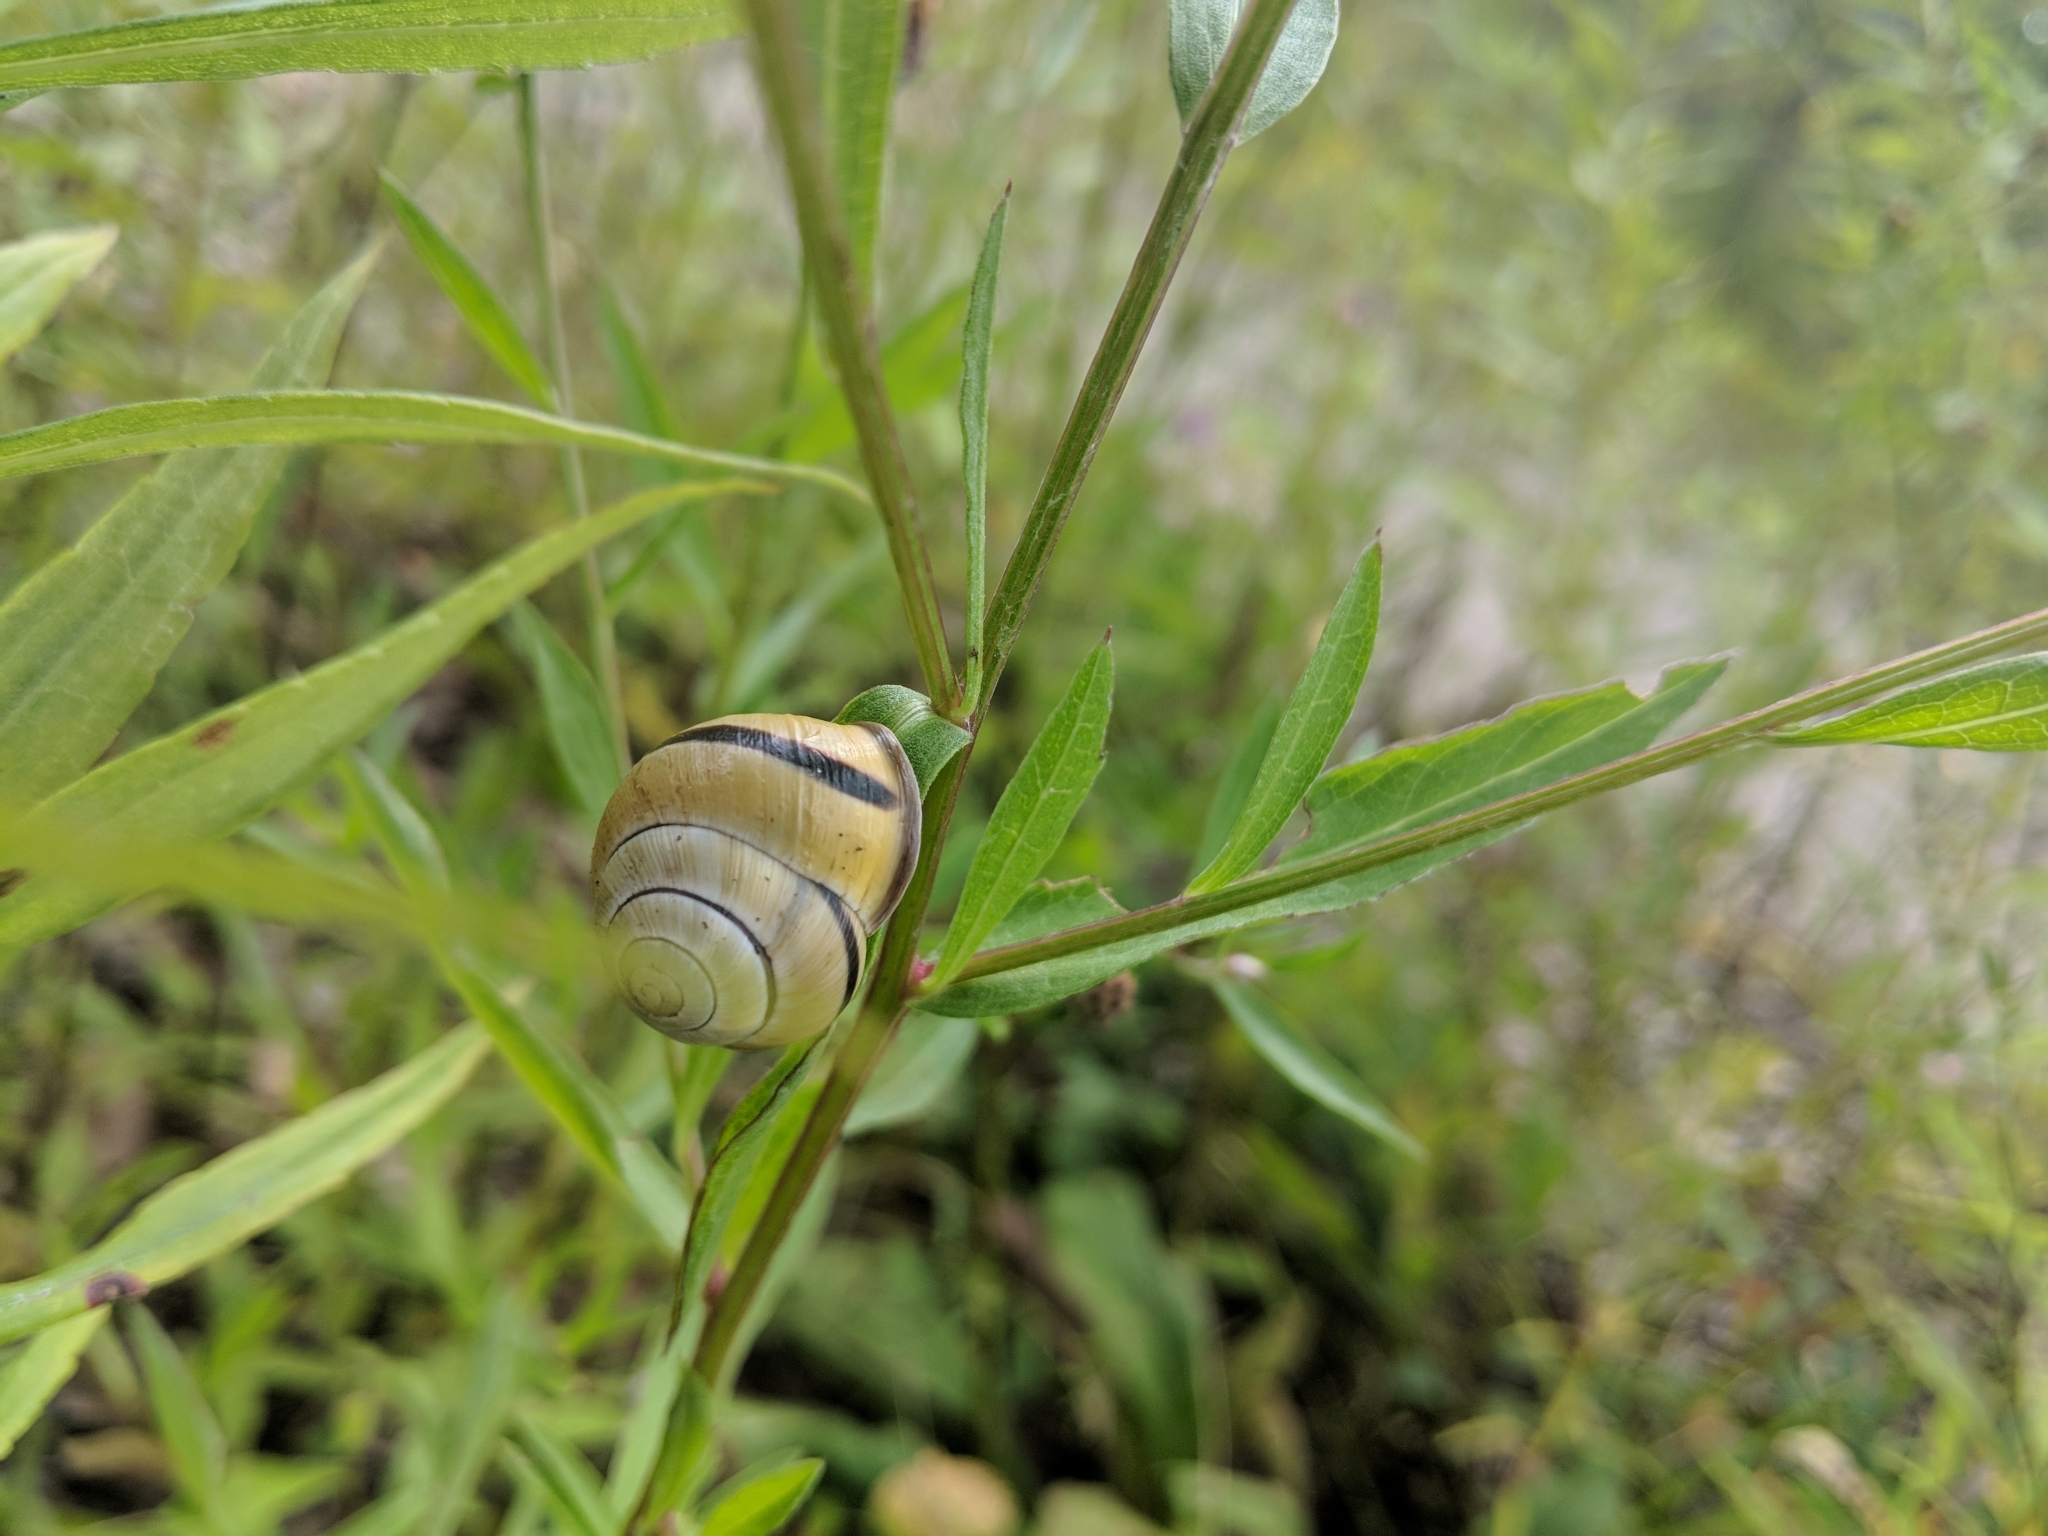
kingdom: Animalia
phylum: Mollusca
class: Gastropoda
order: Stylommatophora
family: Helicidae
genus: Cepaea
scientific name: Cepaea nemoralis
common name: Grovesnail
